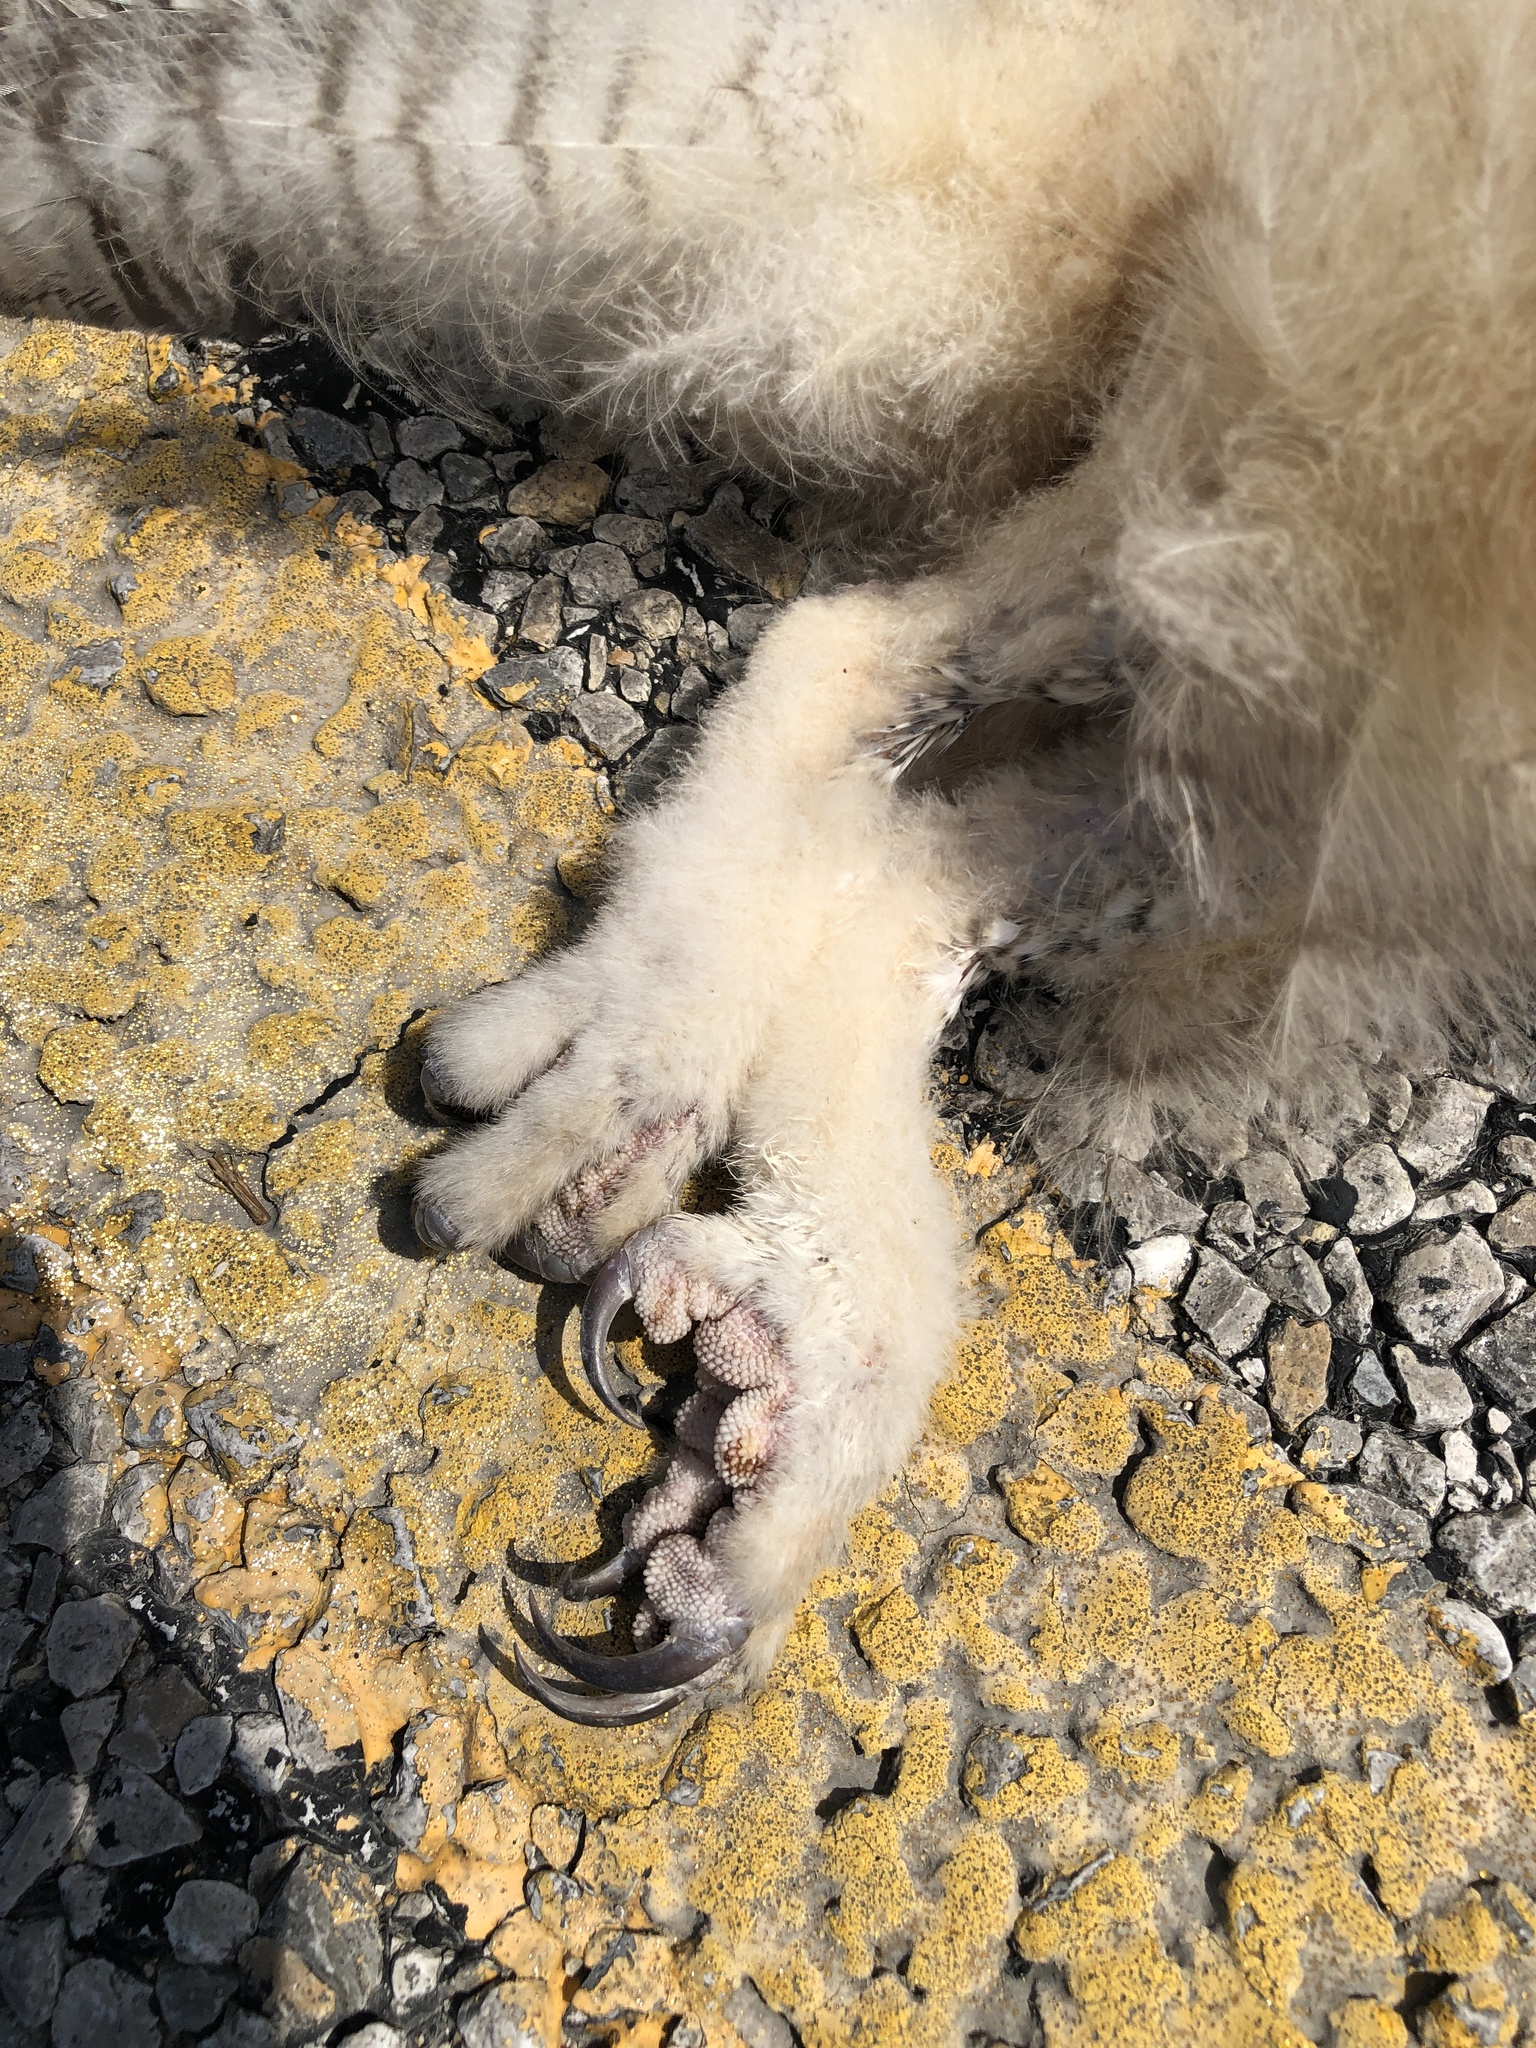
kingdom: Animalia
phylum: Chordata
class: Aves
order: Strigiformes
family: Strigidae
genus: Bubo
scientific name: Bubo virginianus
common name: Great horned owl
